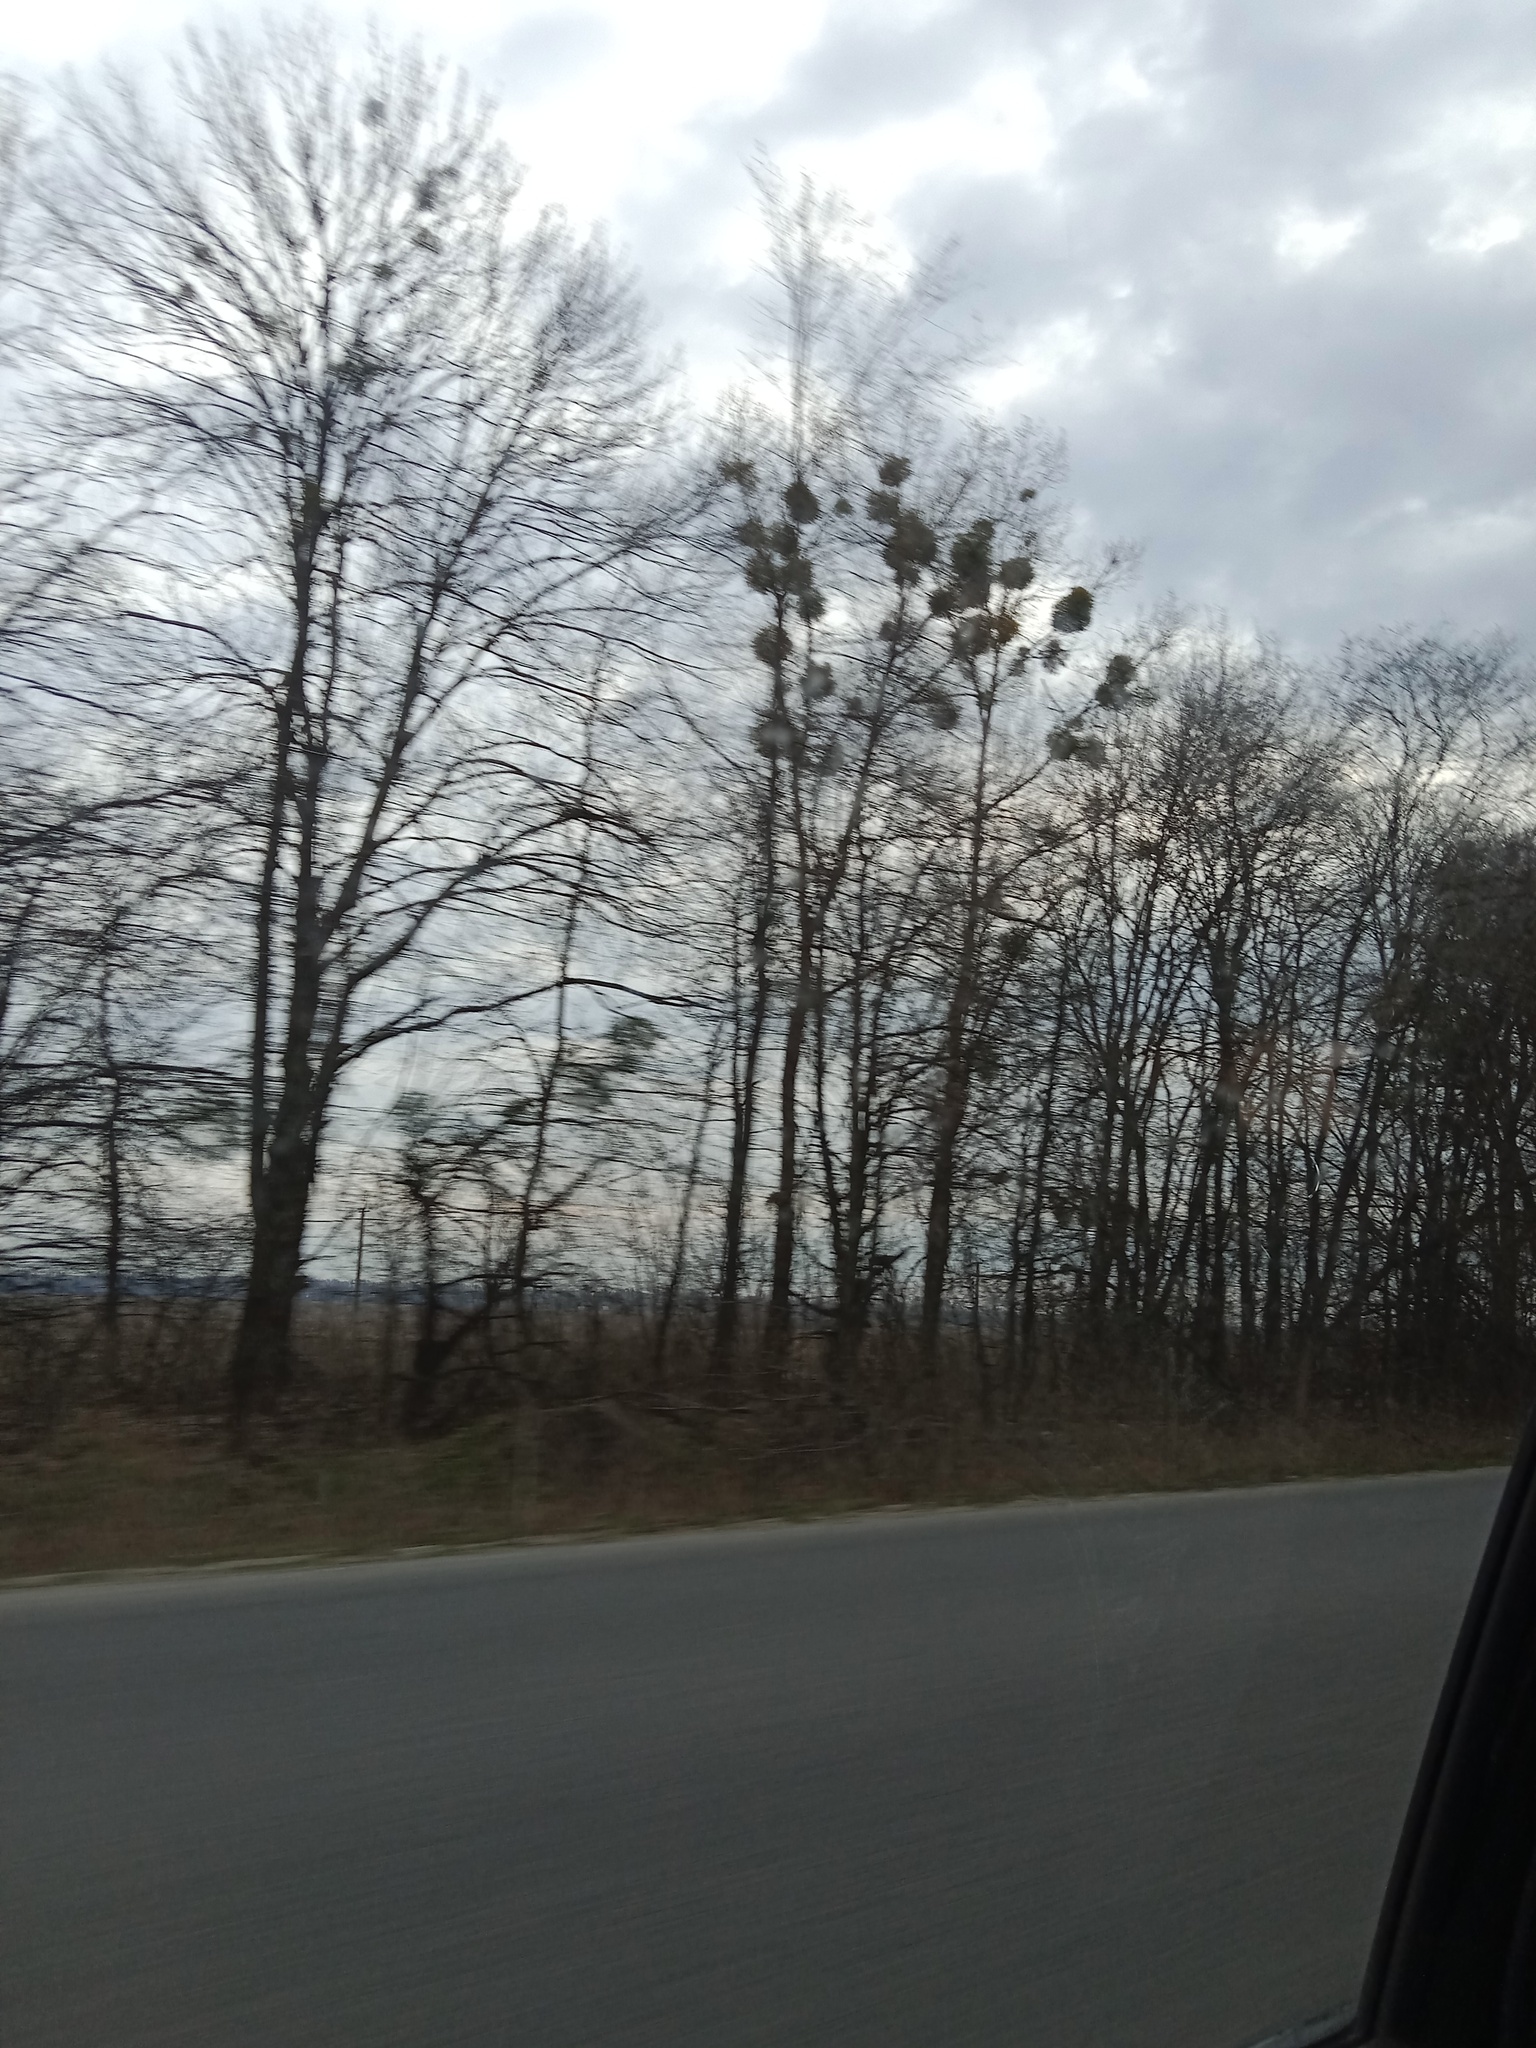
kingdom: Plantae
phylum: Tracheophyta
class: Magnoliopsida
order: Santalales
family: Viscaceae
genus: Viscum
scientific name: Viscum album
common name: Mistletoe
